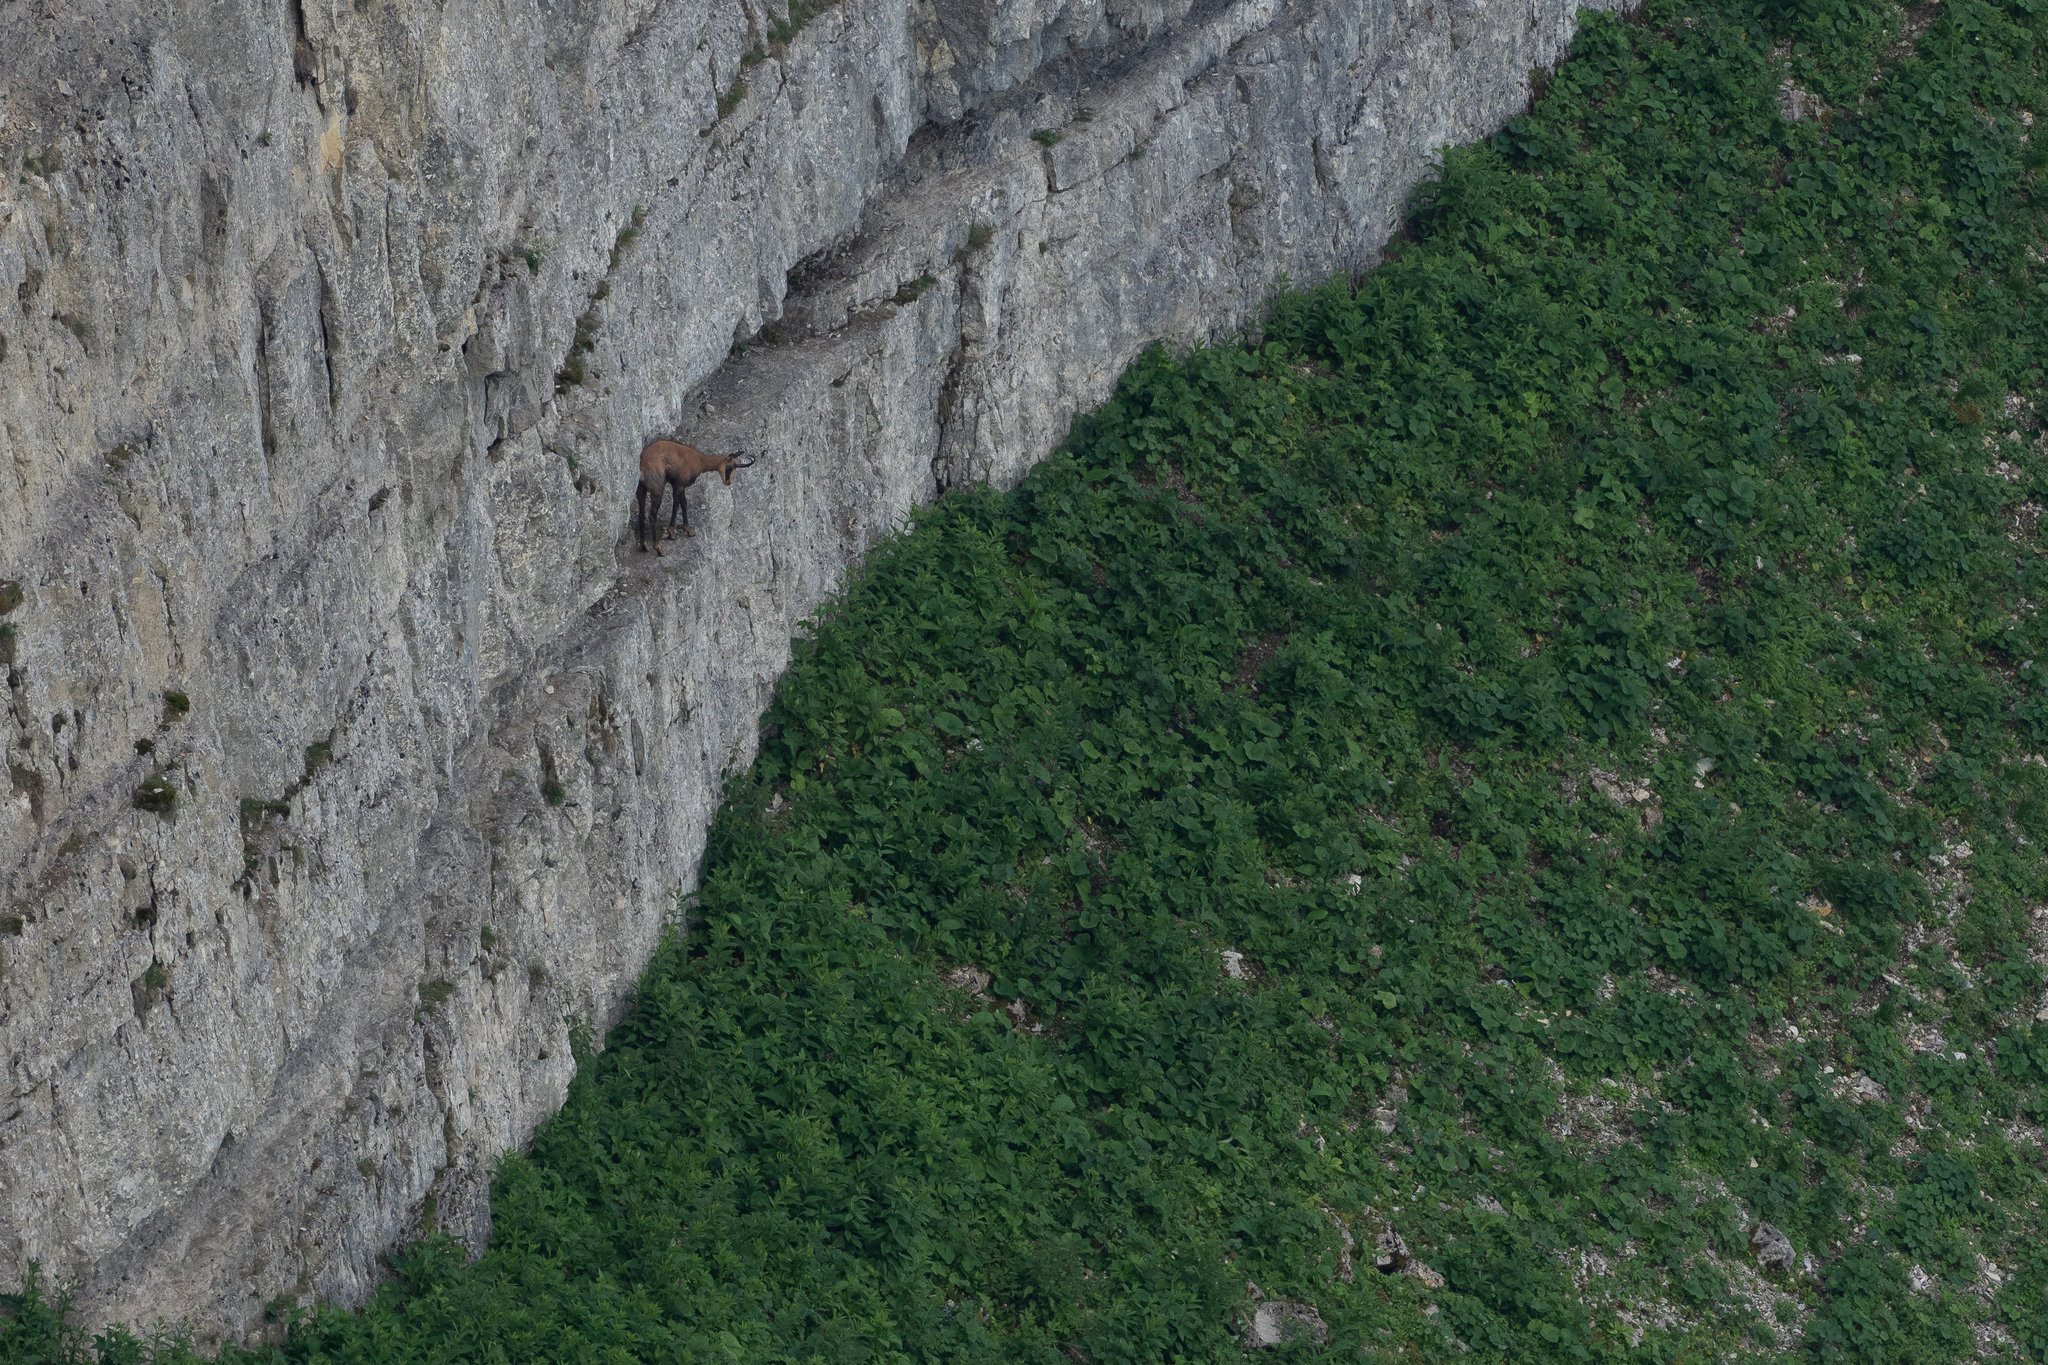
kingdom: Animalia
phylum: Chordata
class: Mammalia
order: Artiodactyla
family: Bovidae
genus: Rupicapra
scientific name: Rupicapra rupicapra
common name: Chamois
